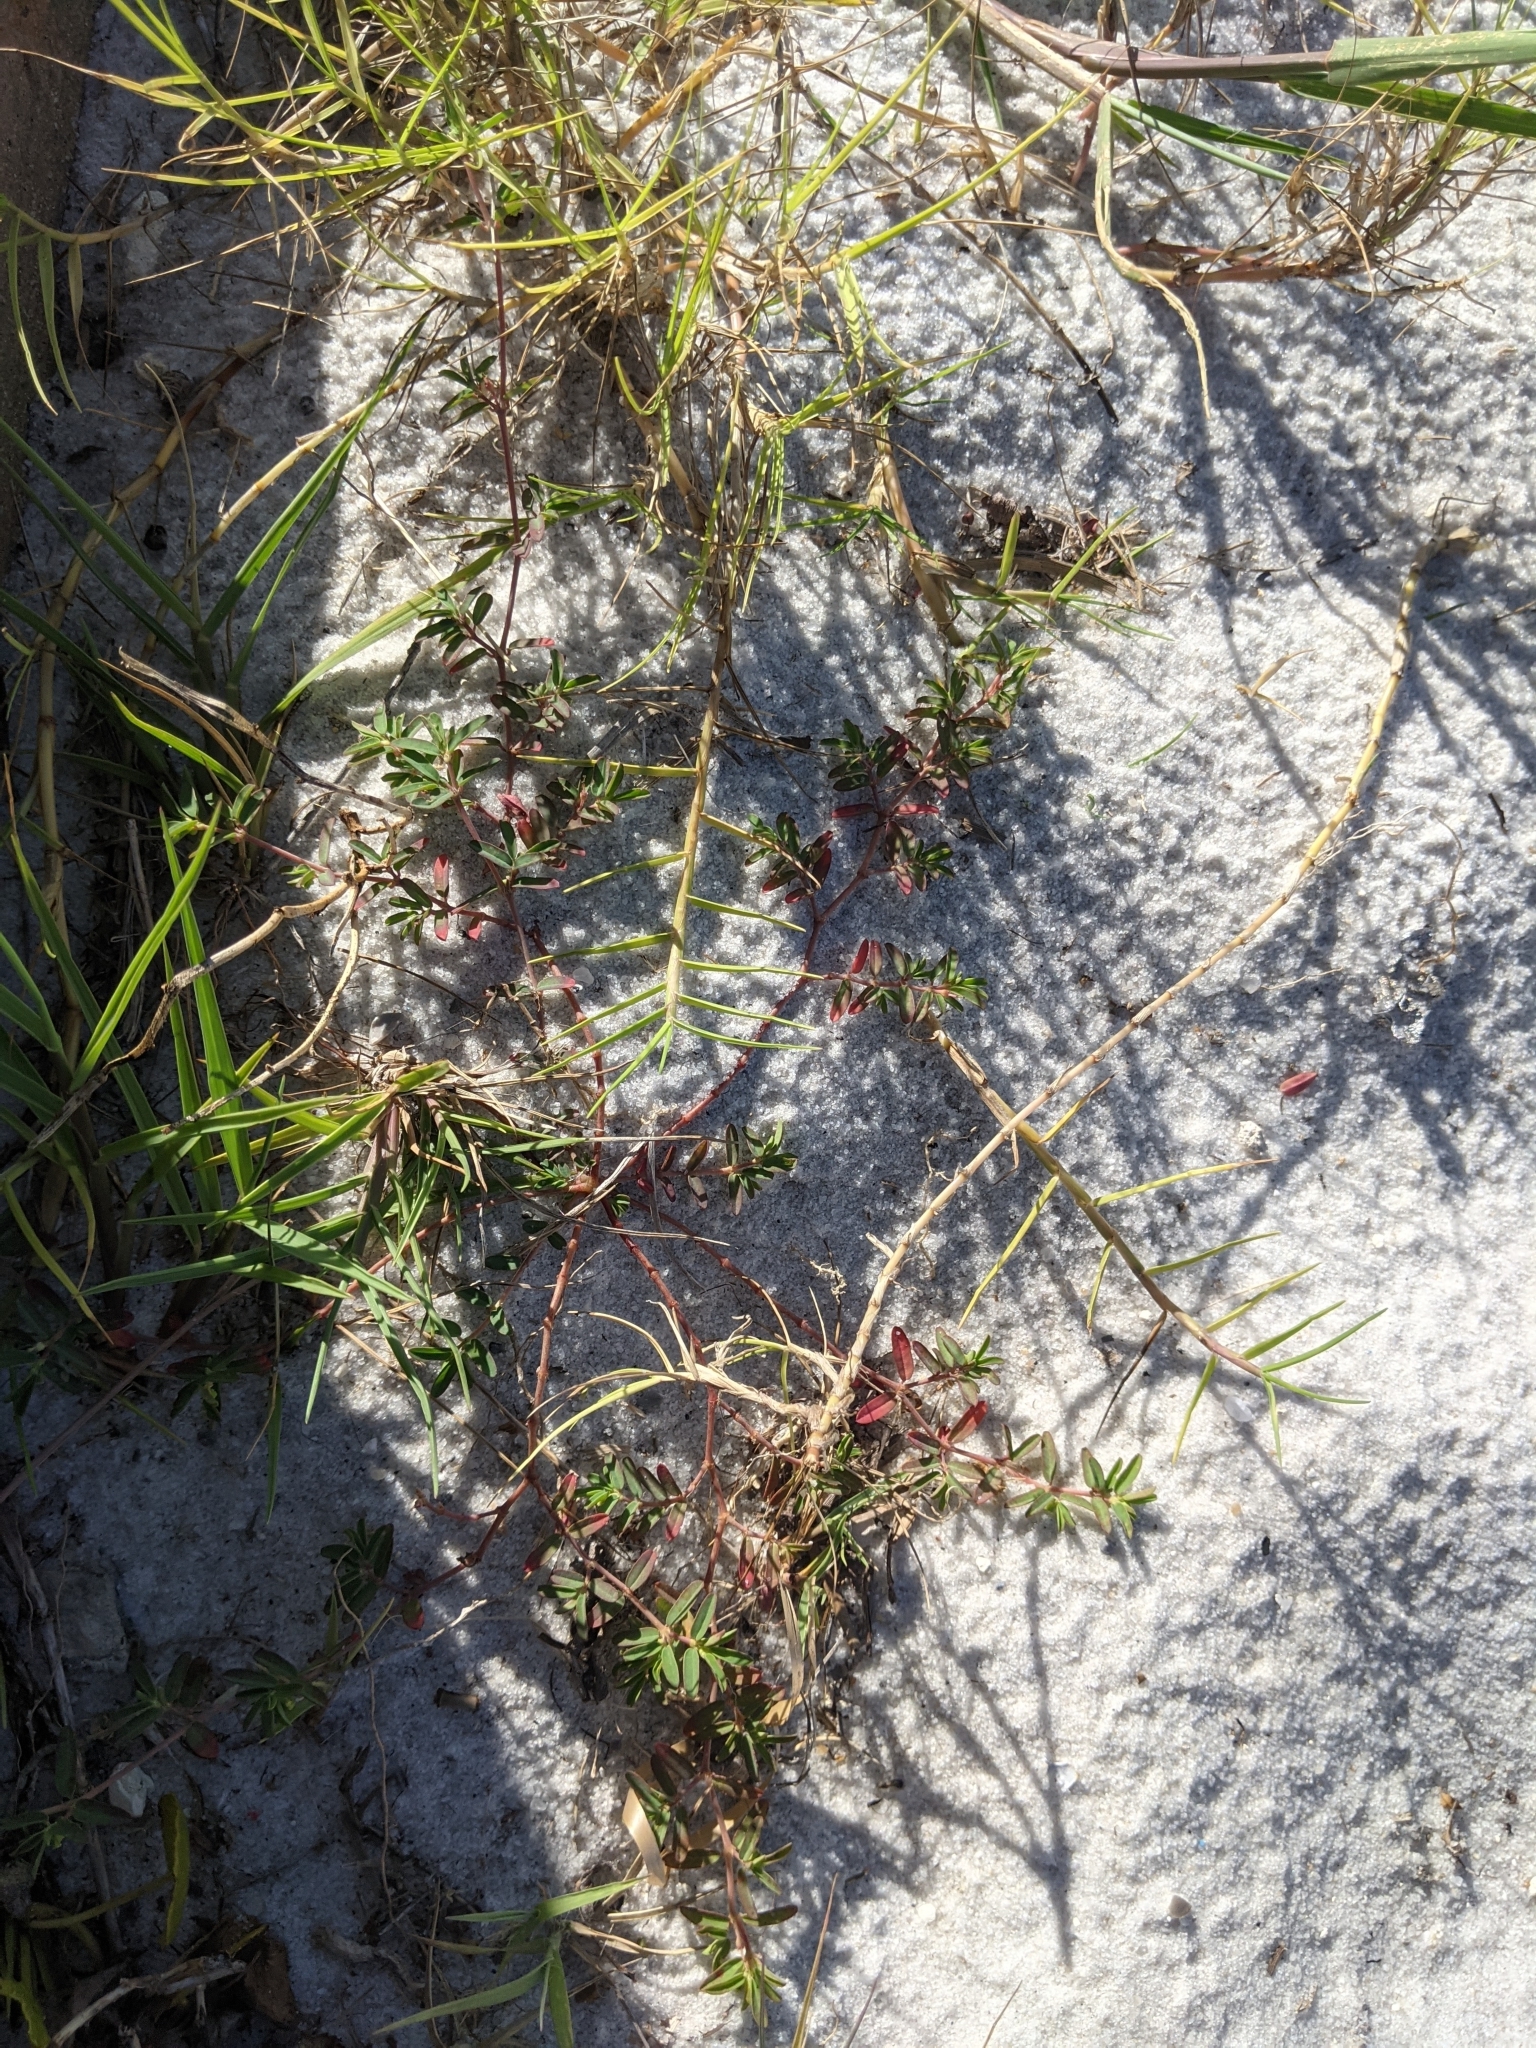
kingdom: Plantae
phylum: Tracheophyta
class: Magnoliopsida
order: Malpighiales
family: Euphorbiaceae
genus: Euphorbia
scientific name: Euphorbia bombensis
